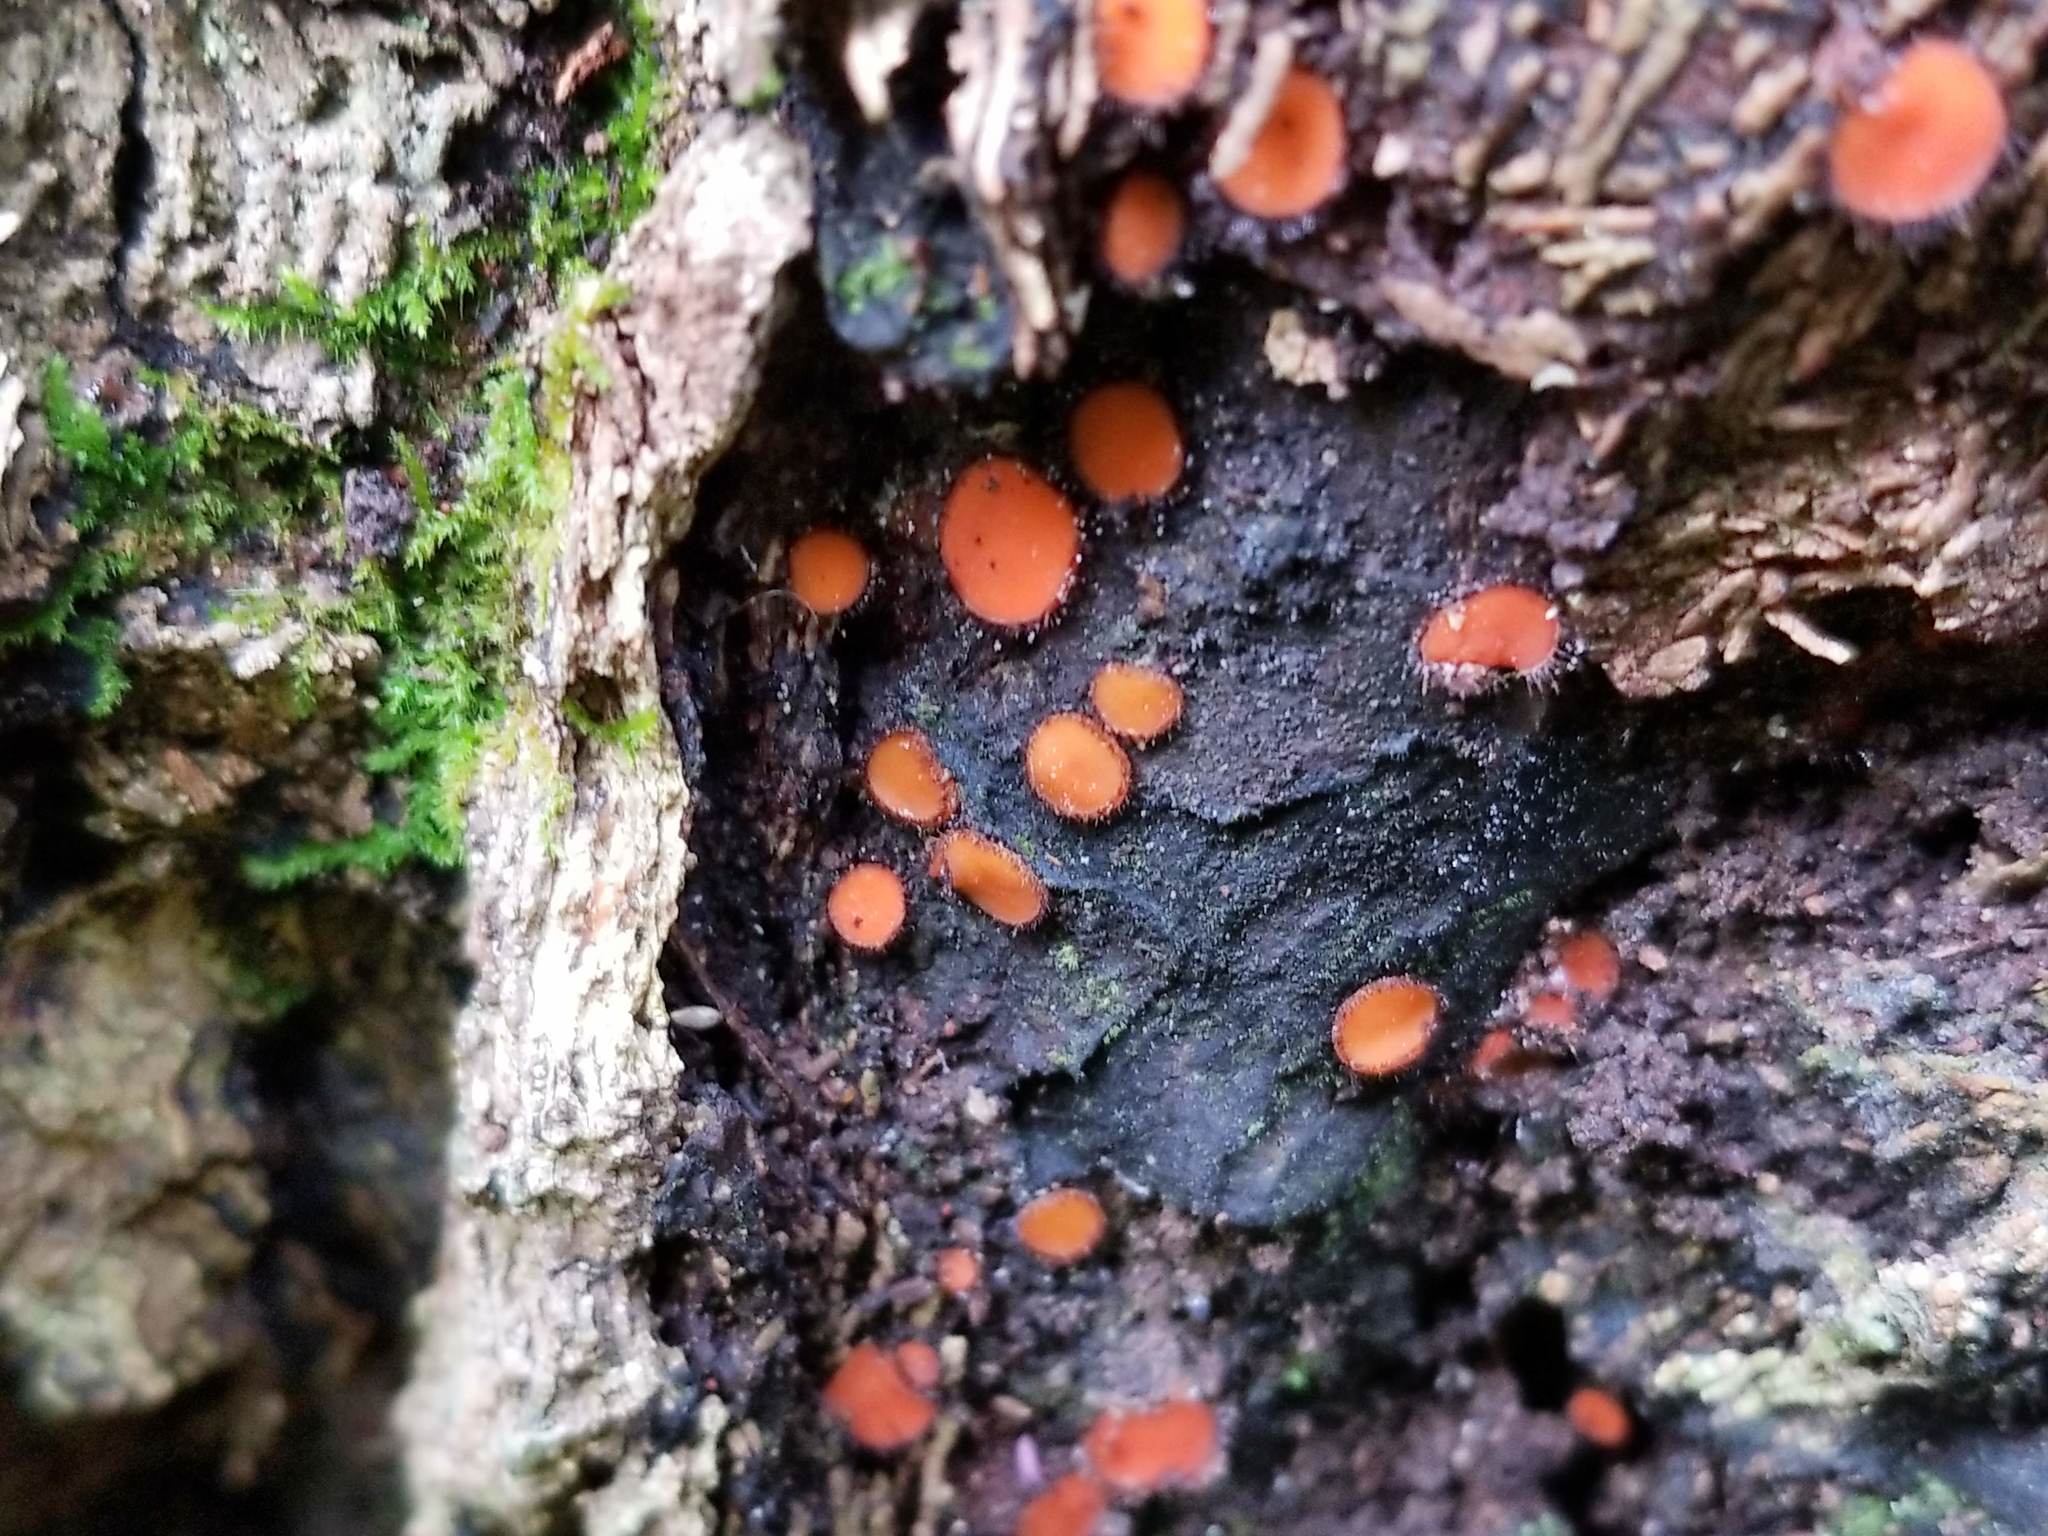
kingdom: Fungi
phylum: Ascomycota
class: Pezizomycetes
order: Pezizales
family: Pyronemataceae
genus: Scutellinia
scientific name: Scutellinia scutellata
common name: Common eyelash
